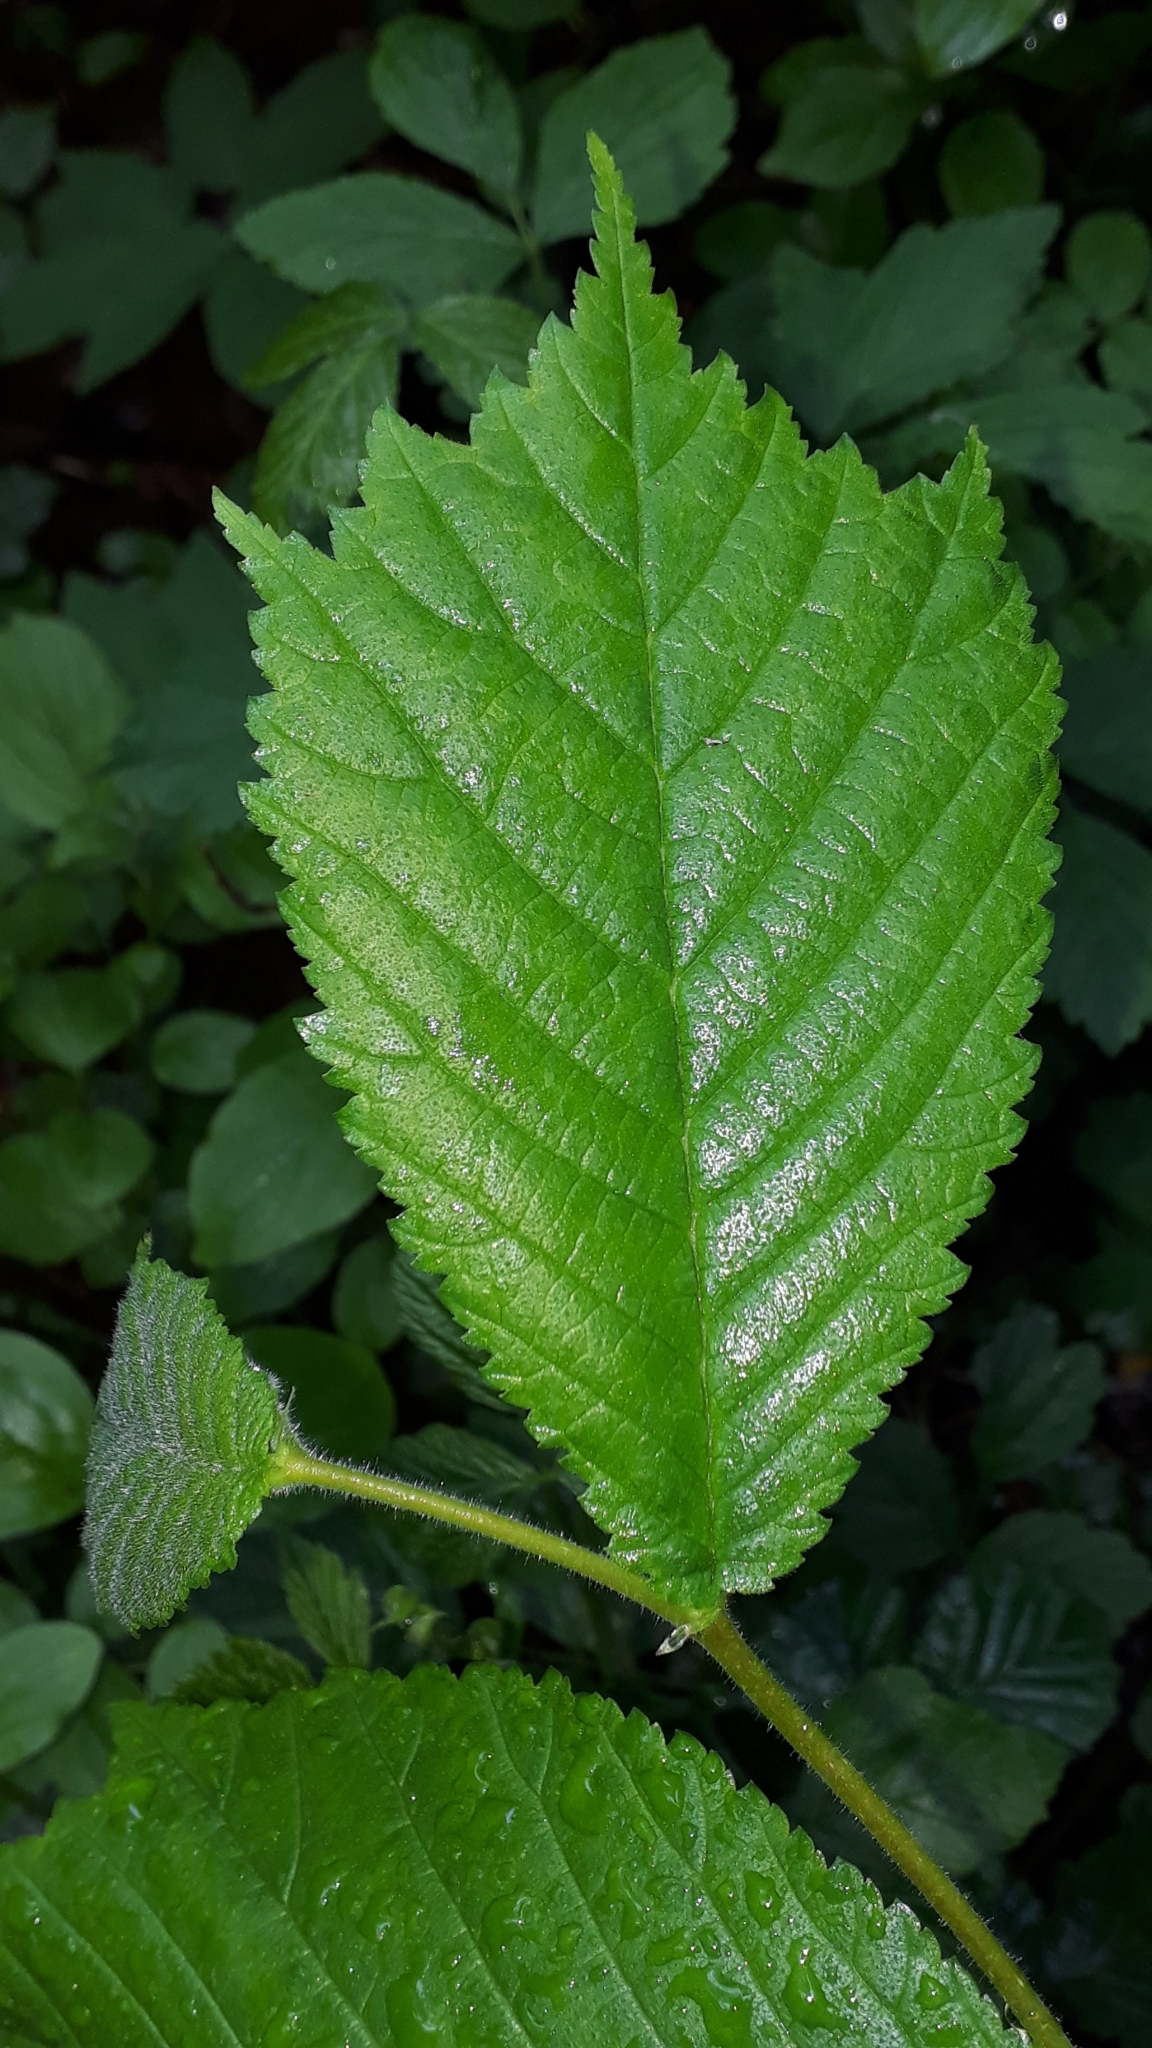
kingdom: Plantae
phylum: Tracheophyta
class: Magnoliopsida
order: Rosales
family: Ulmaceae
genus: Ulmus
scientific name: Ulmus glabra
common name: Wych elm
